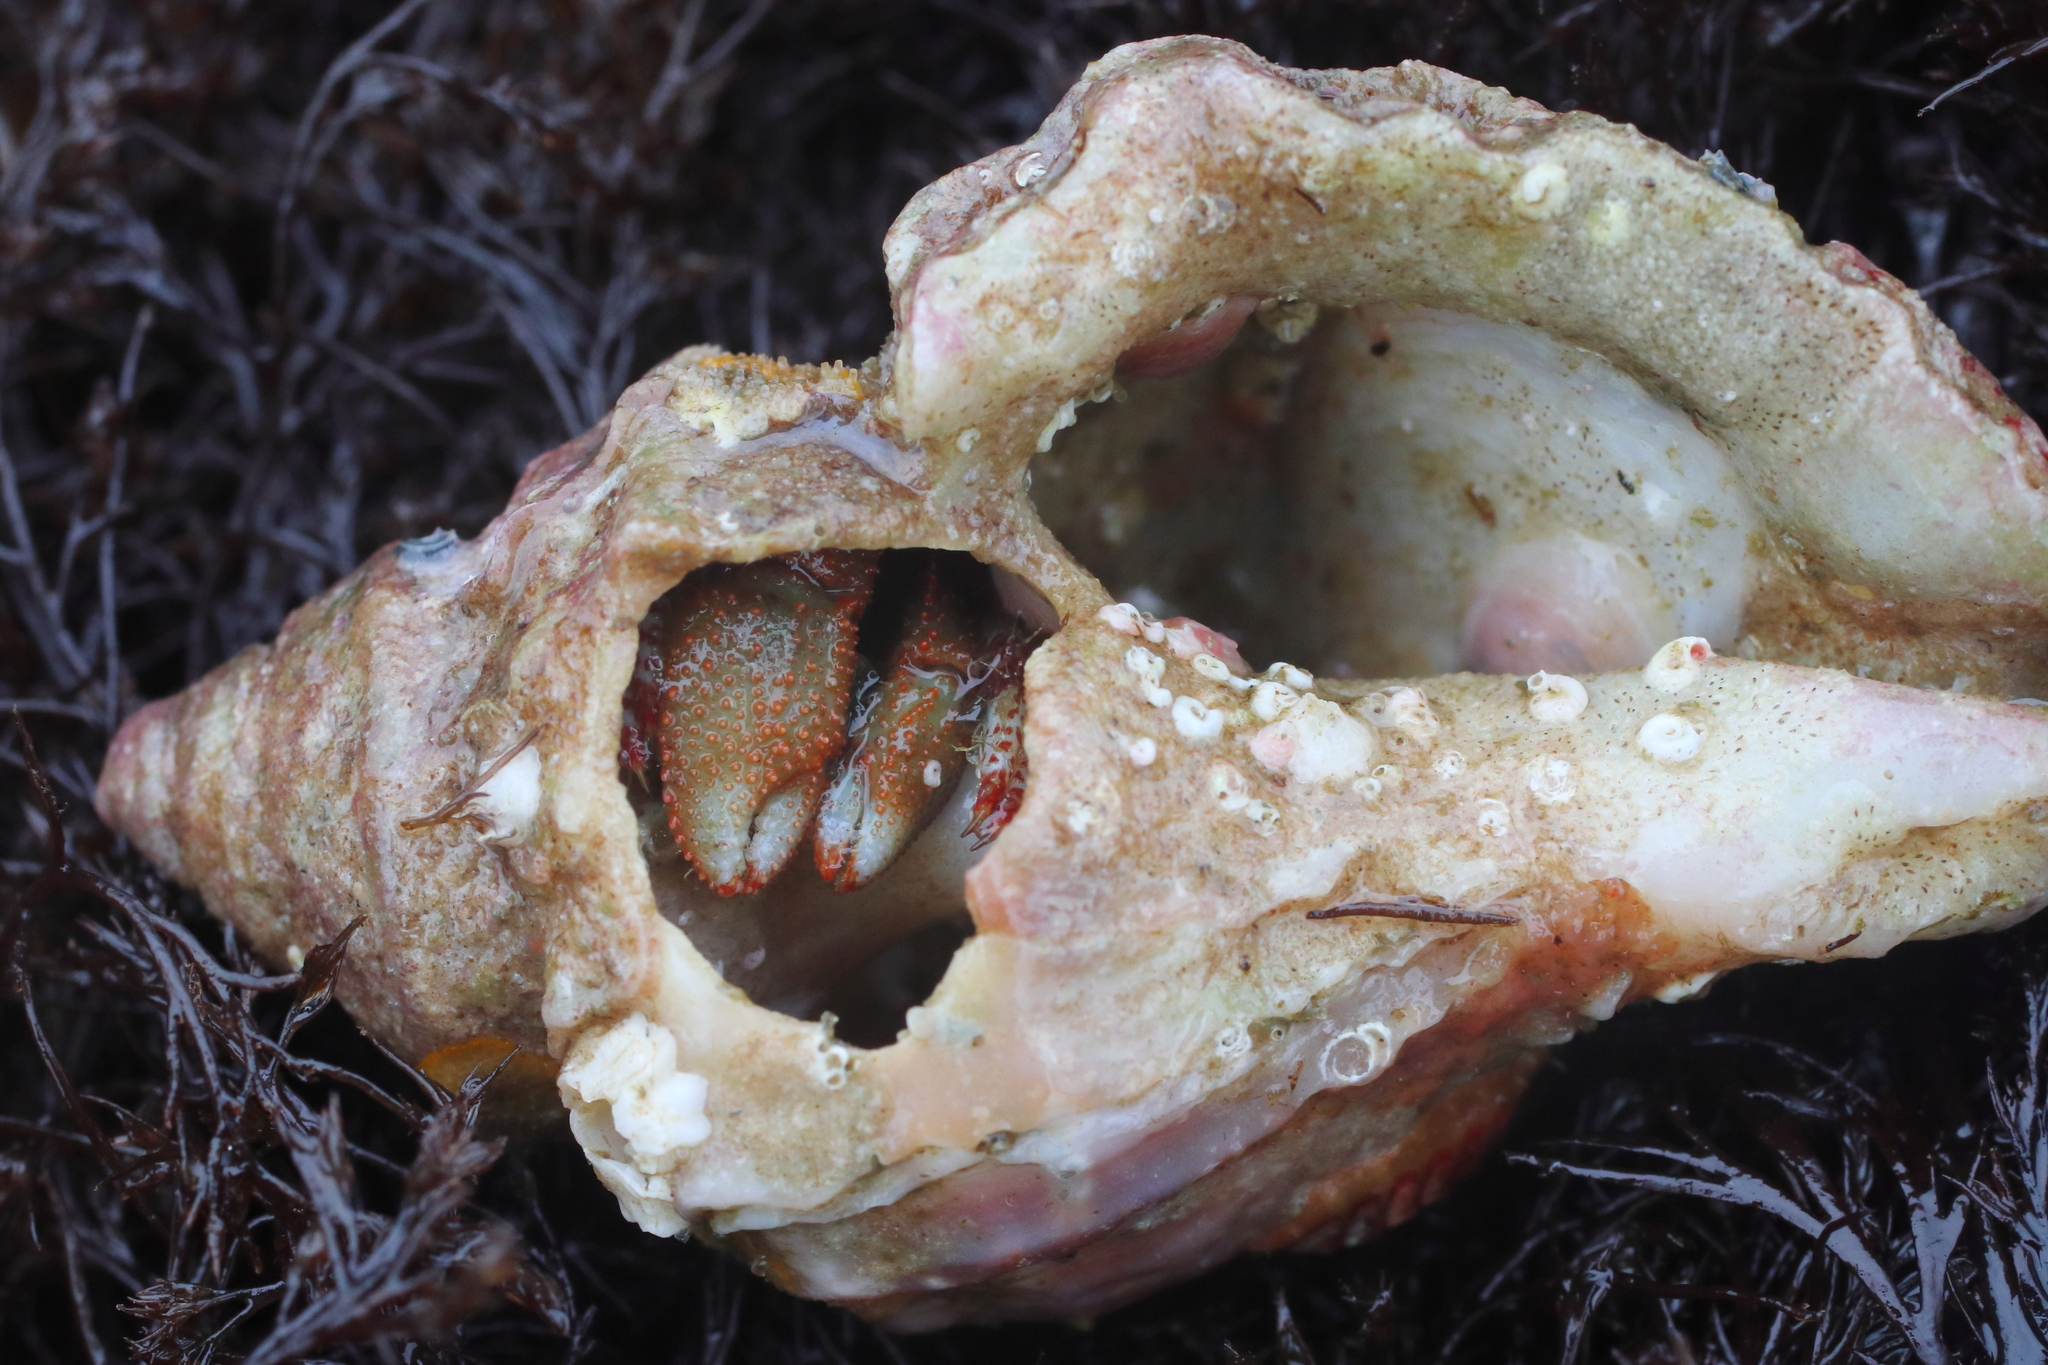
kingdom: Animalia
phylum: Arthropoda
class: Malacostraca
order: Decapoda
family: Paguridae
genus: Pagurus
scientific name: Pagurus beringanus
